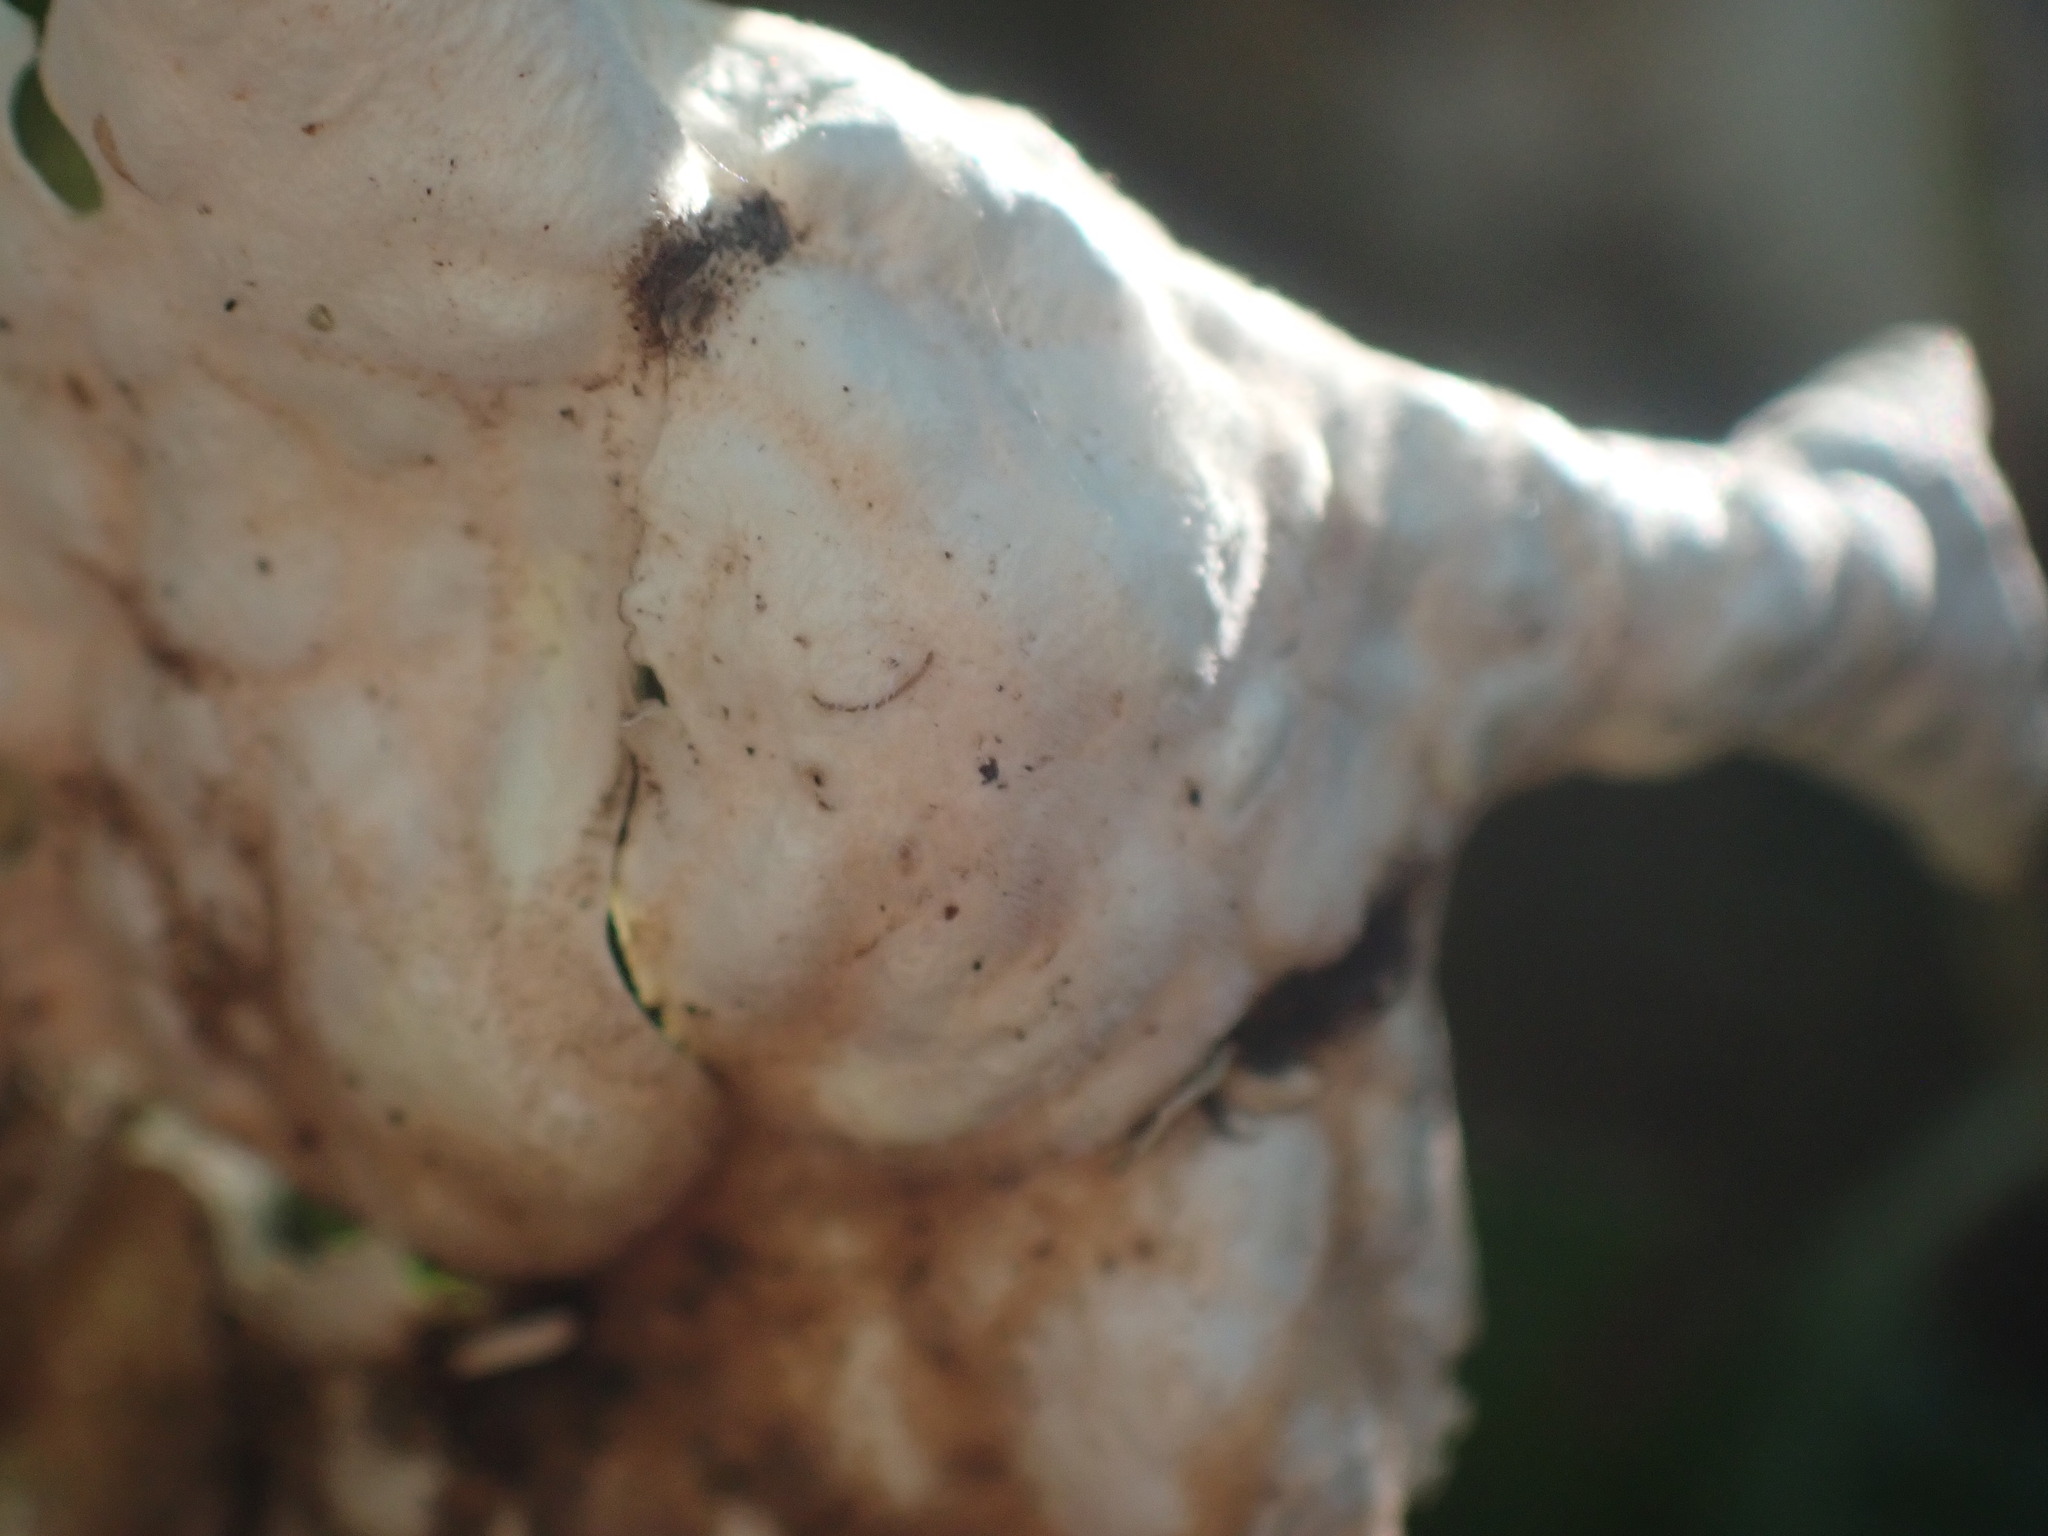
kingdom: Fungi
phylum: Ascomycota
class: Lecanoromycetes
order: Peltigerales
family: Lobariaceae
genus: Lobaria
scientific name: Lobaria oregana
